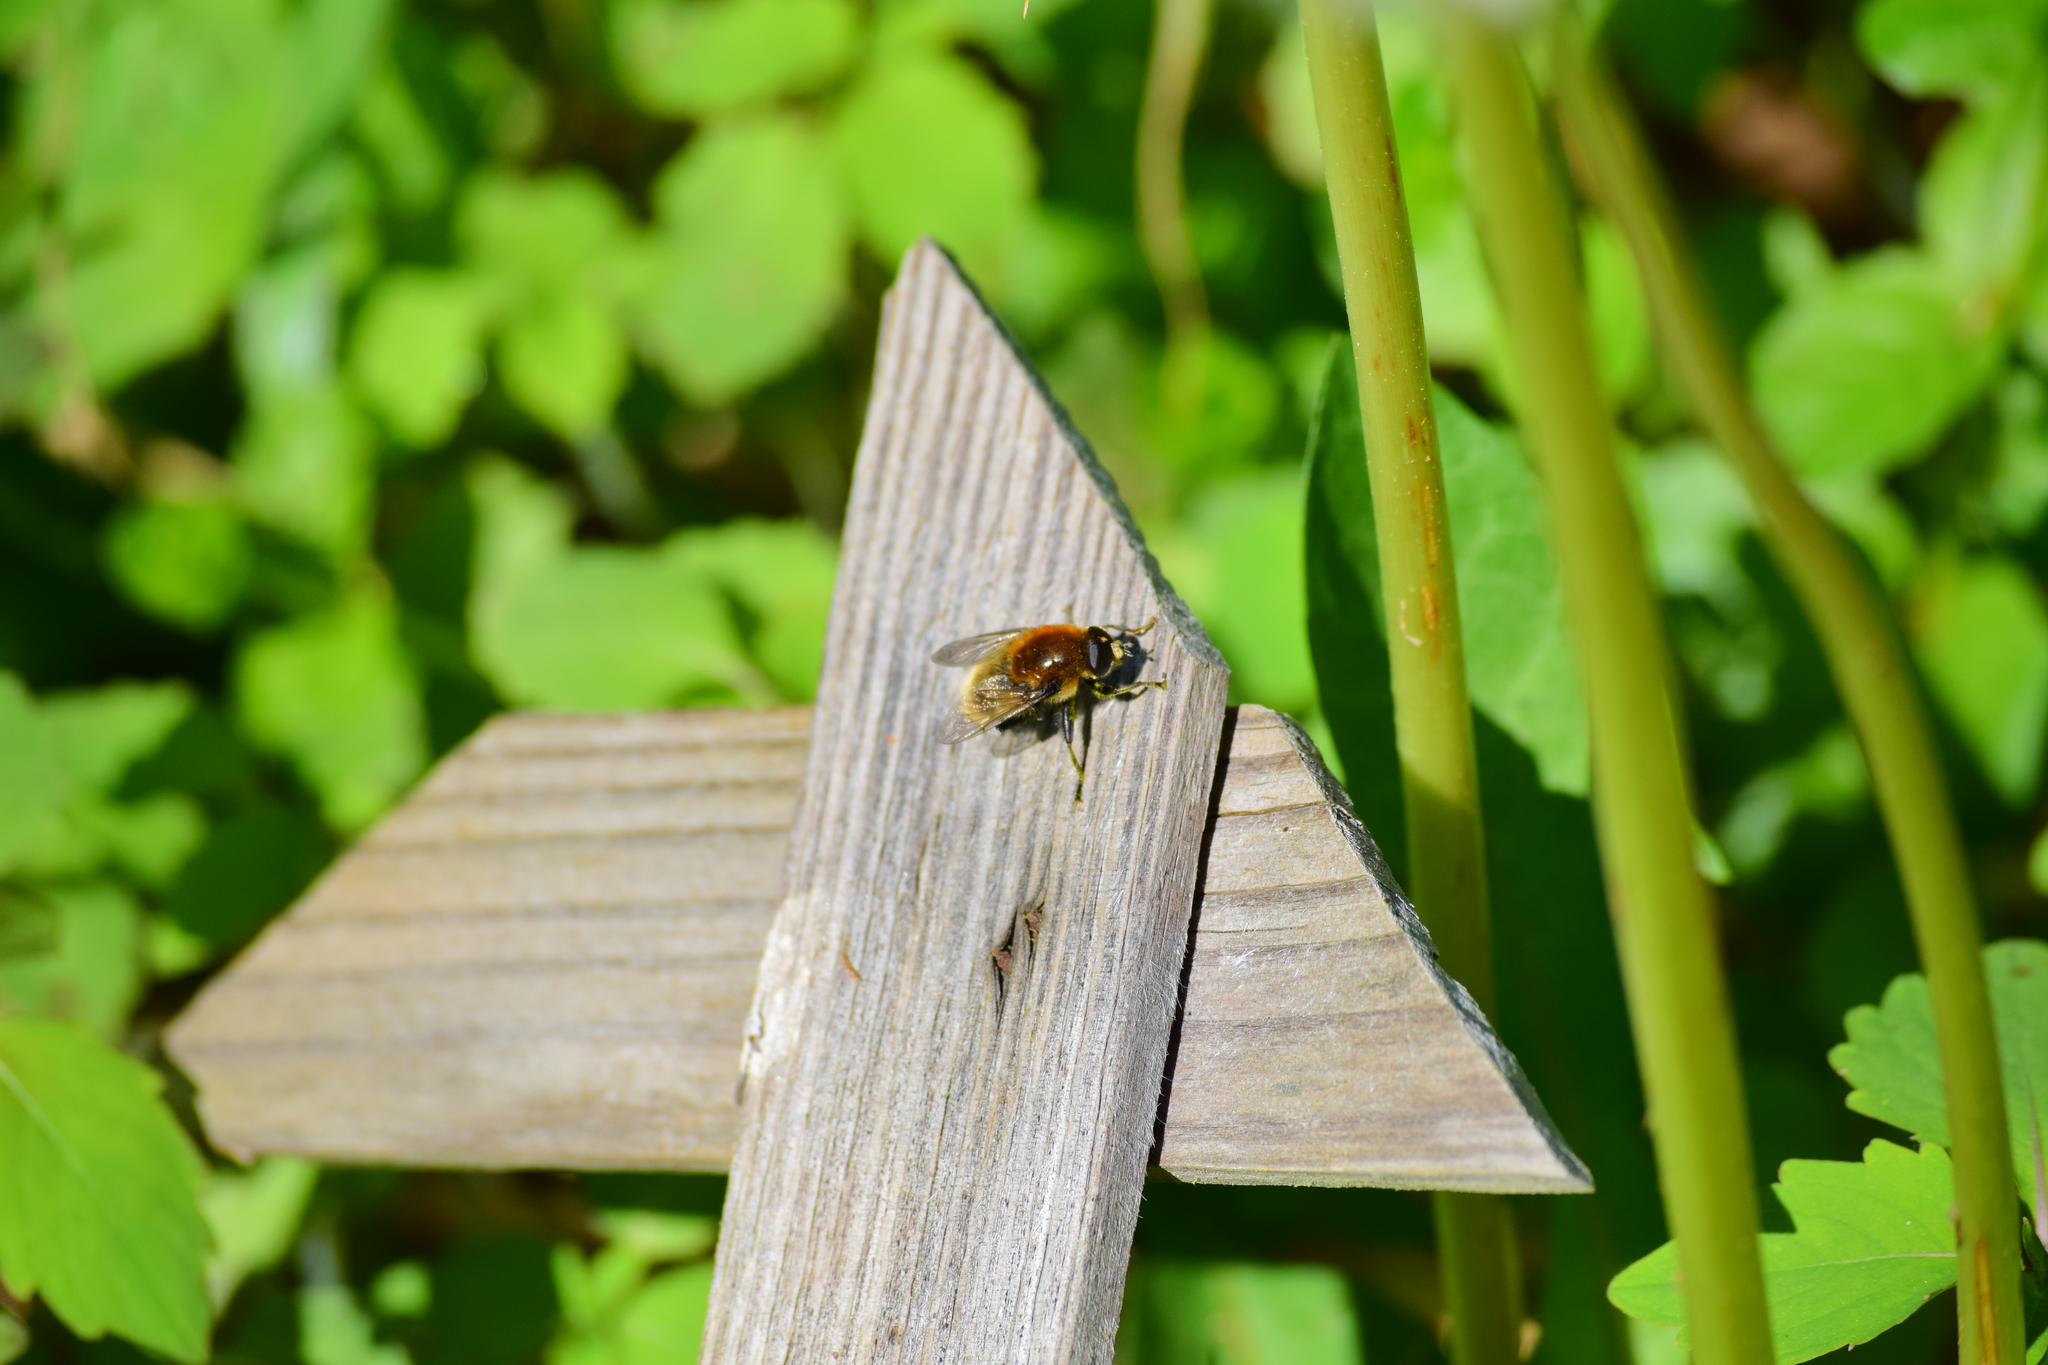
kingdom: Animalia
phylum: Arthropoda
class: Insecta
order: Diptera
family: Syrphidae
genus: Merodon
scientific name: Merodon equestris
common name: Greater bulb-fly
